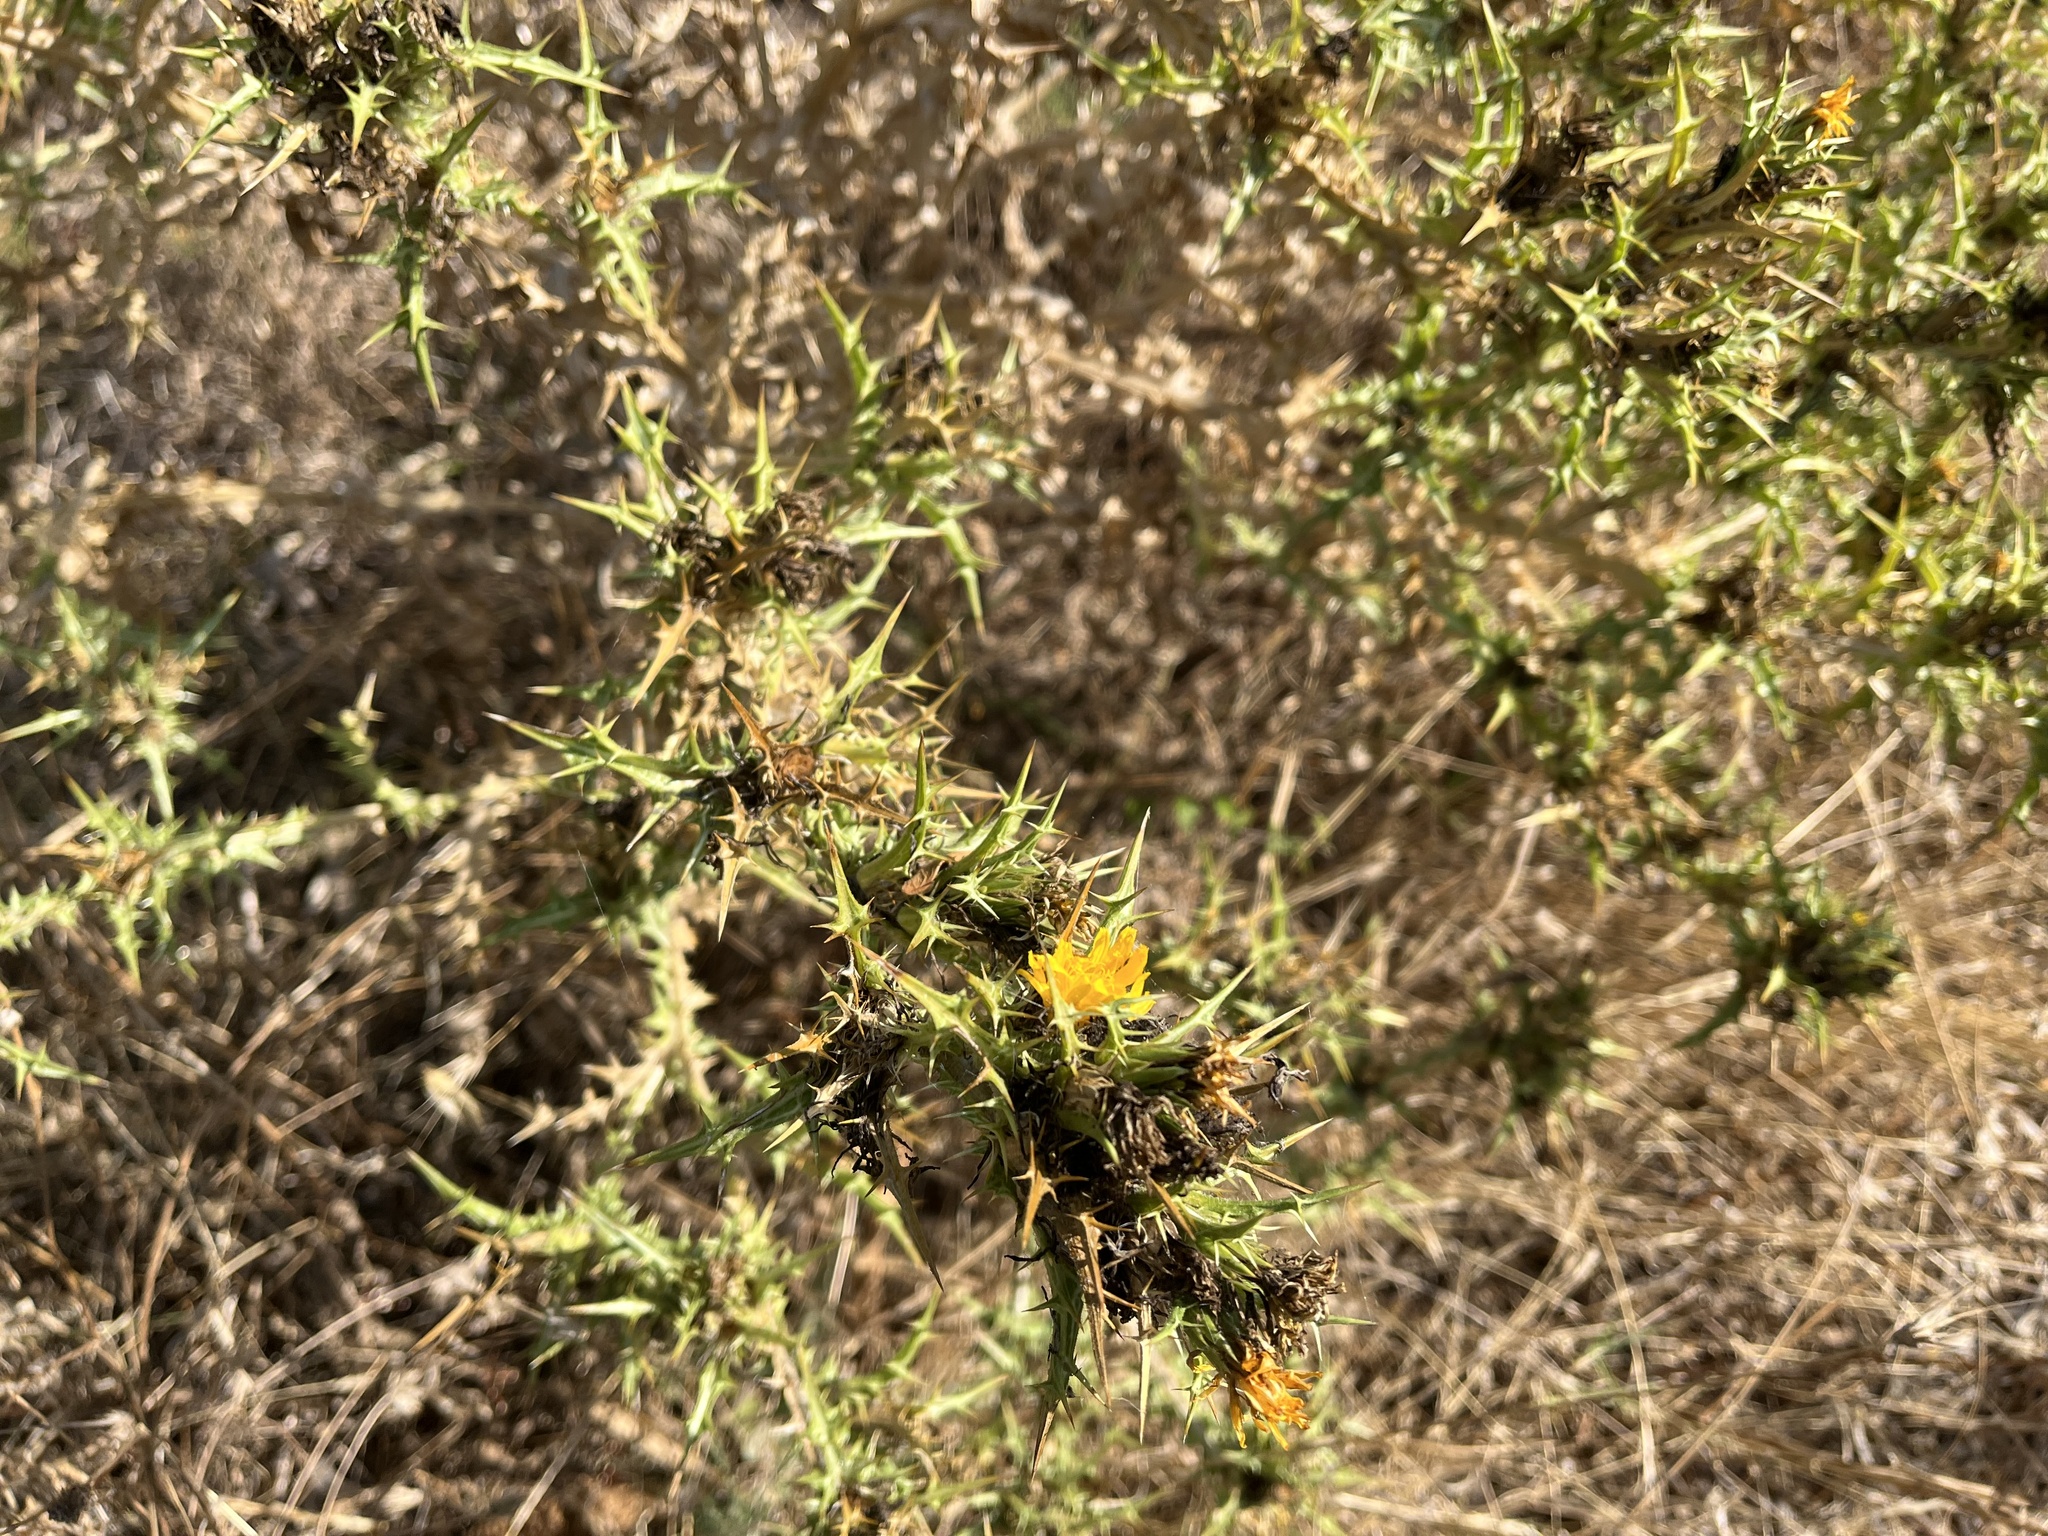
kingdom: Plantae
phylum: Tracheophyta
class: Magnoliopsida
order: Asterales
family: Asteraceae
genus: Scolymus
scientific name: Scolymus hispanicus
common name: Golden thistle
